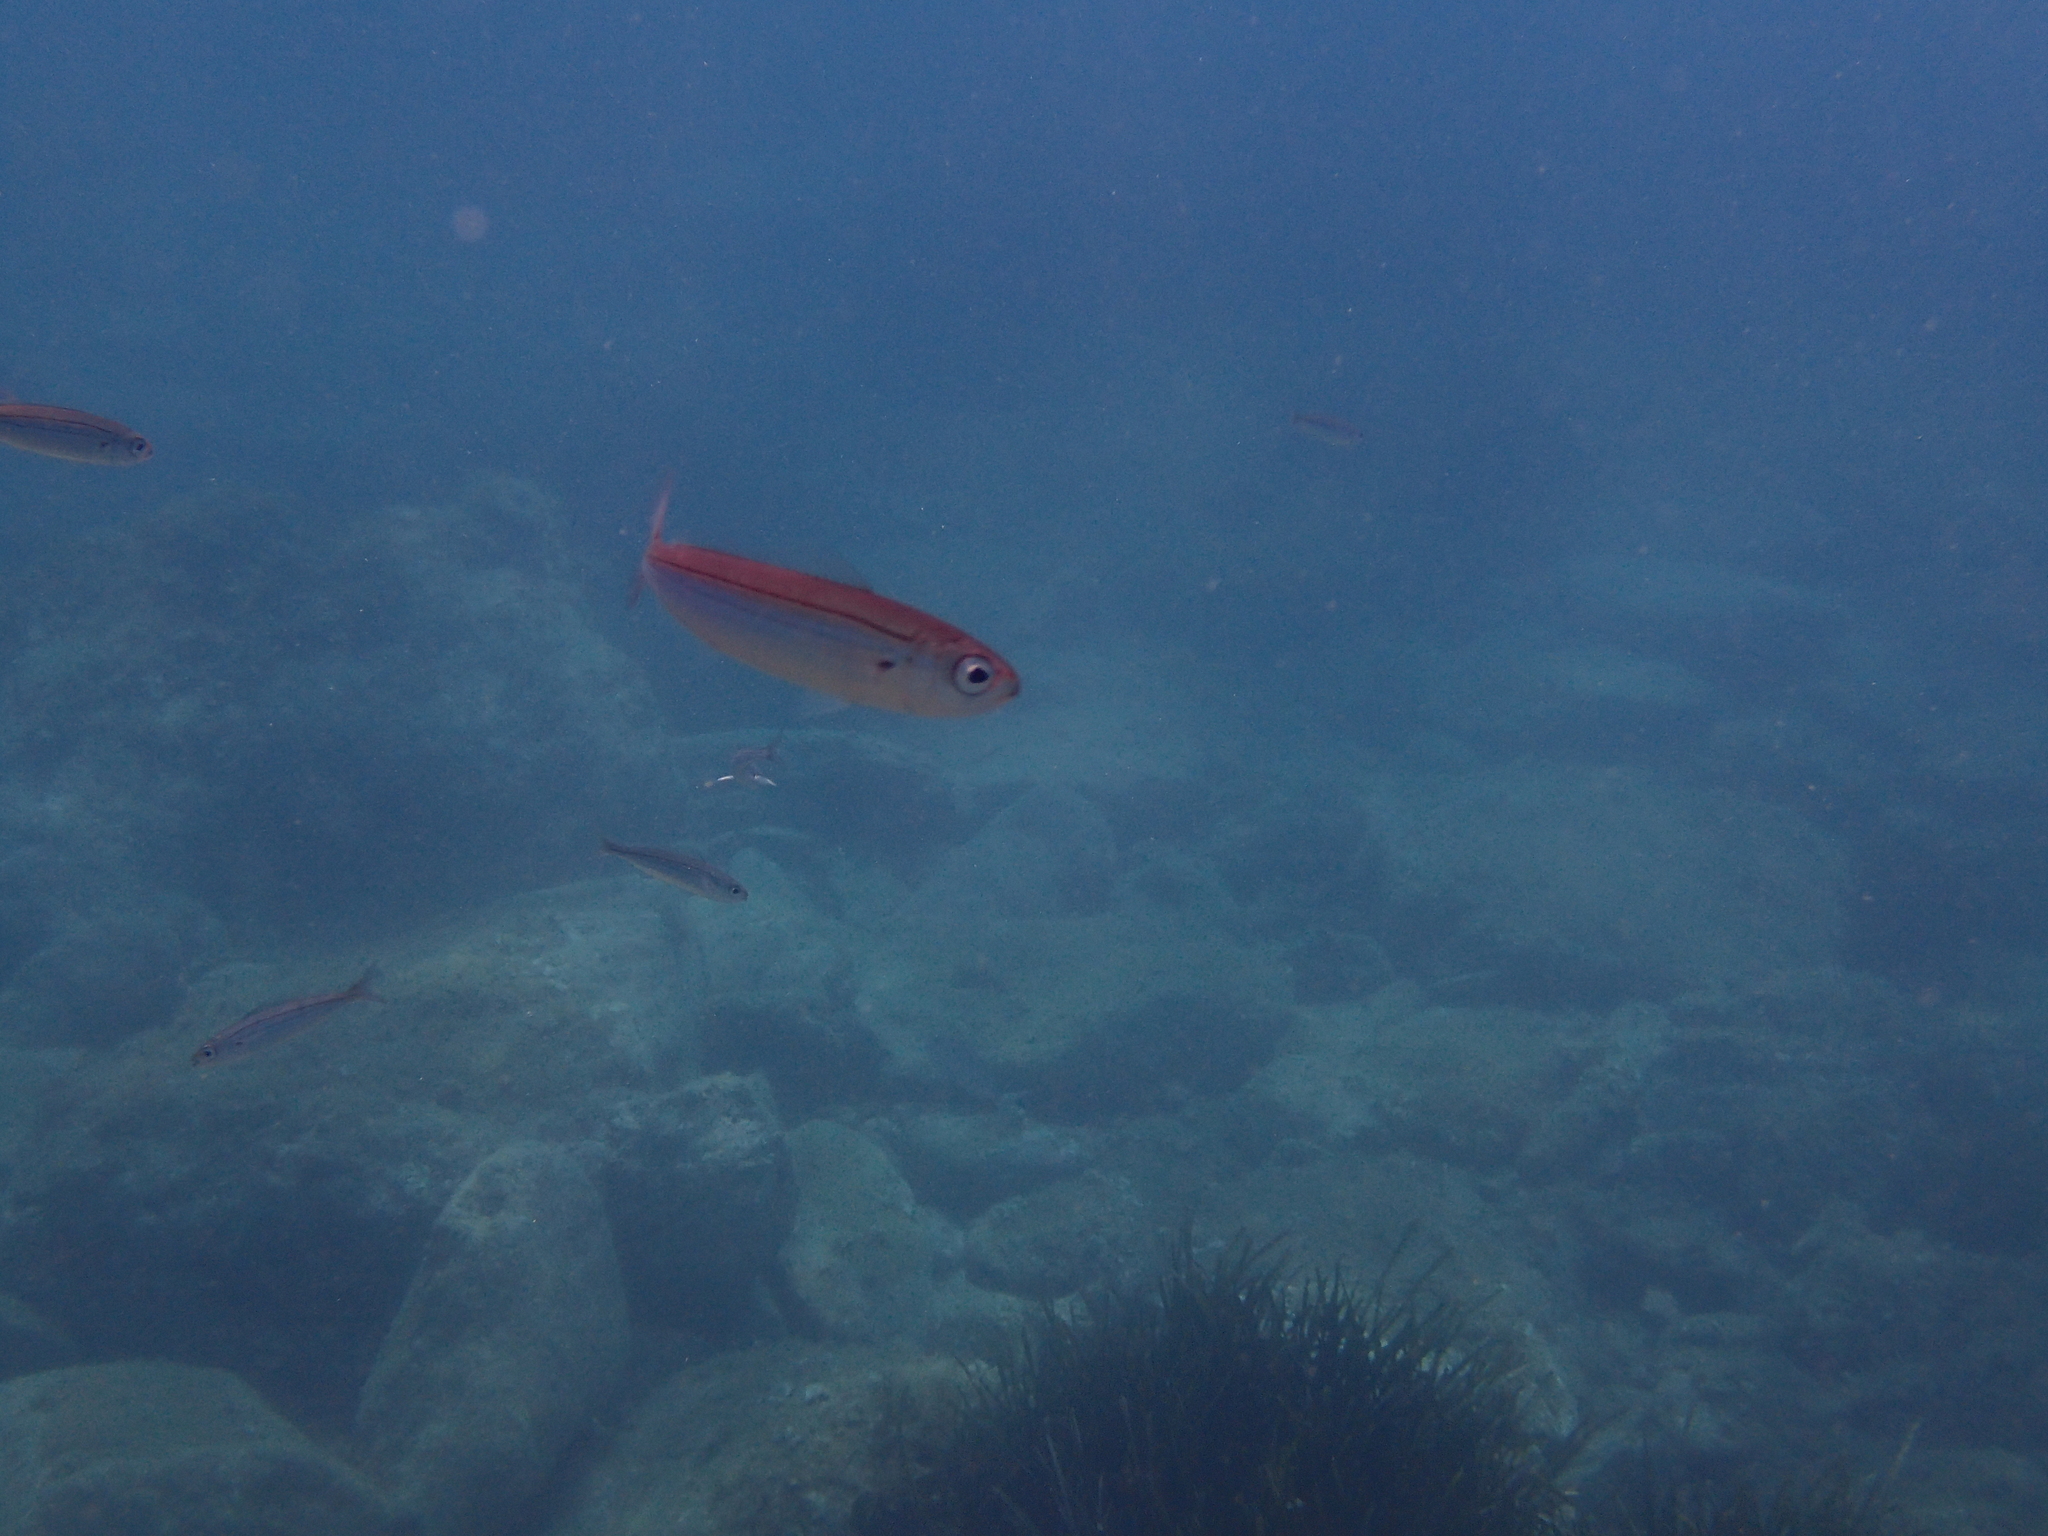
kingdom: Animalia
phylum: Chordata
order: Perciformes
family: Sparidae
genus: Boops
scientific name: Boops boops
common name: Bogue
